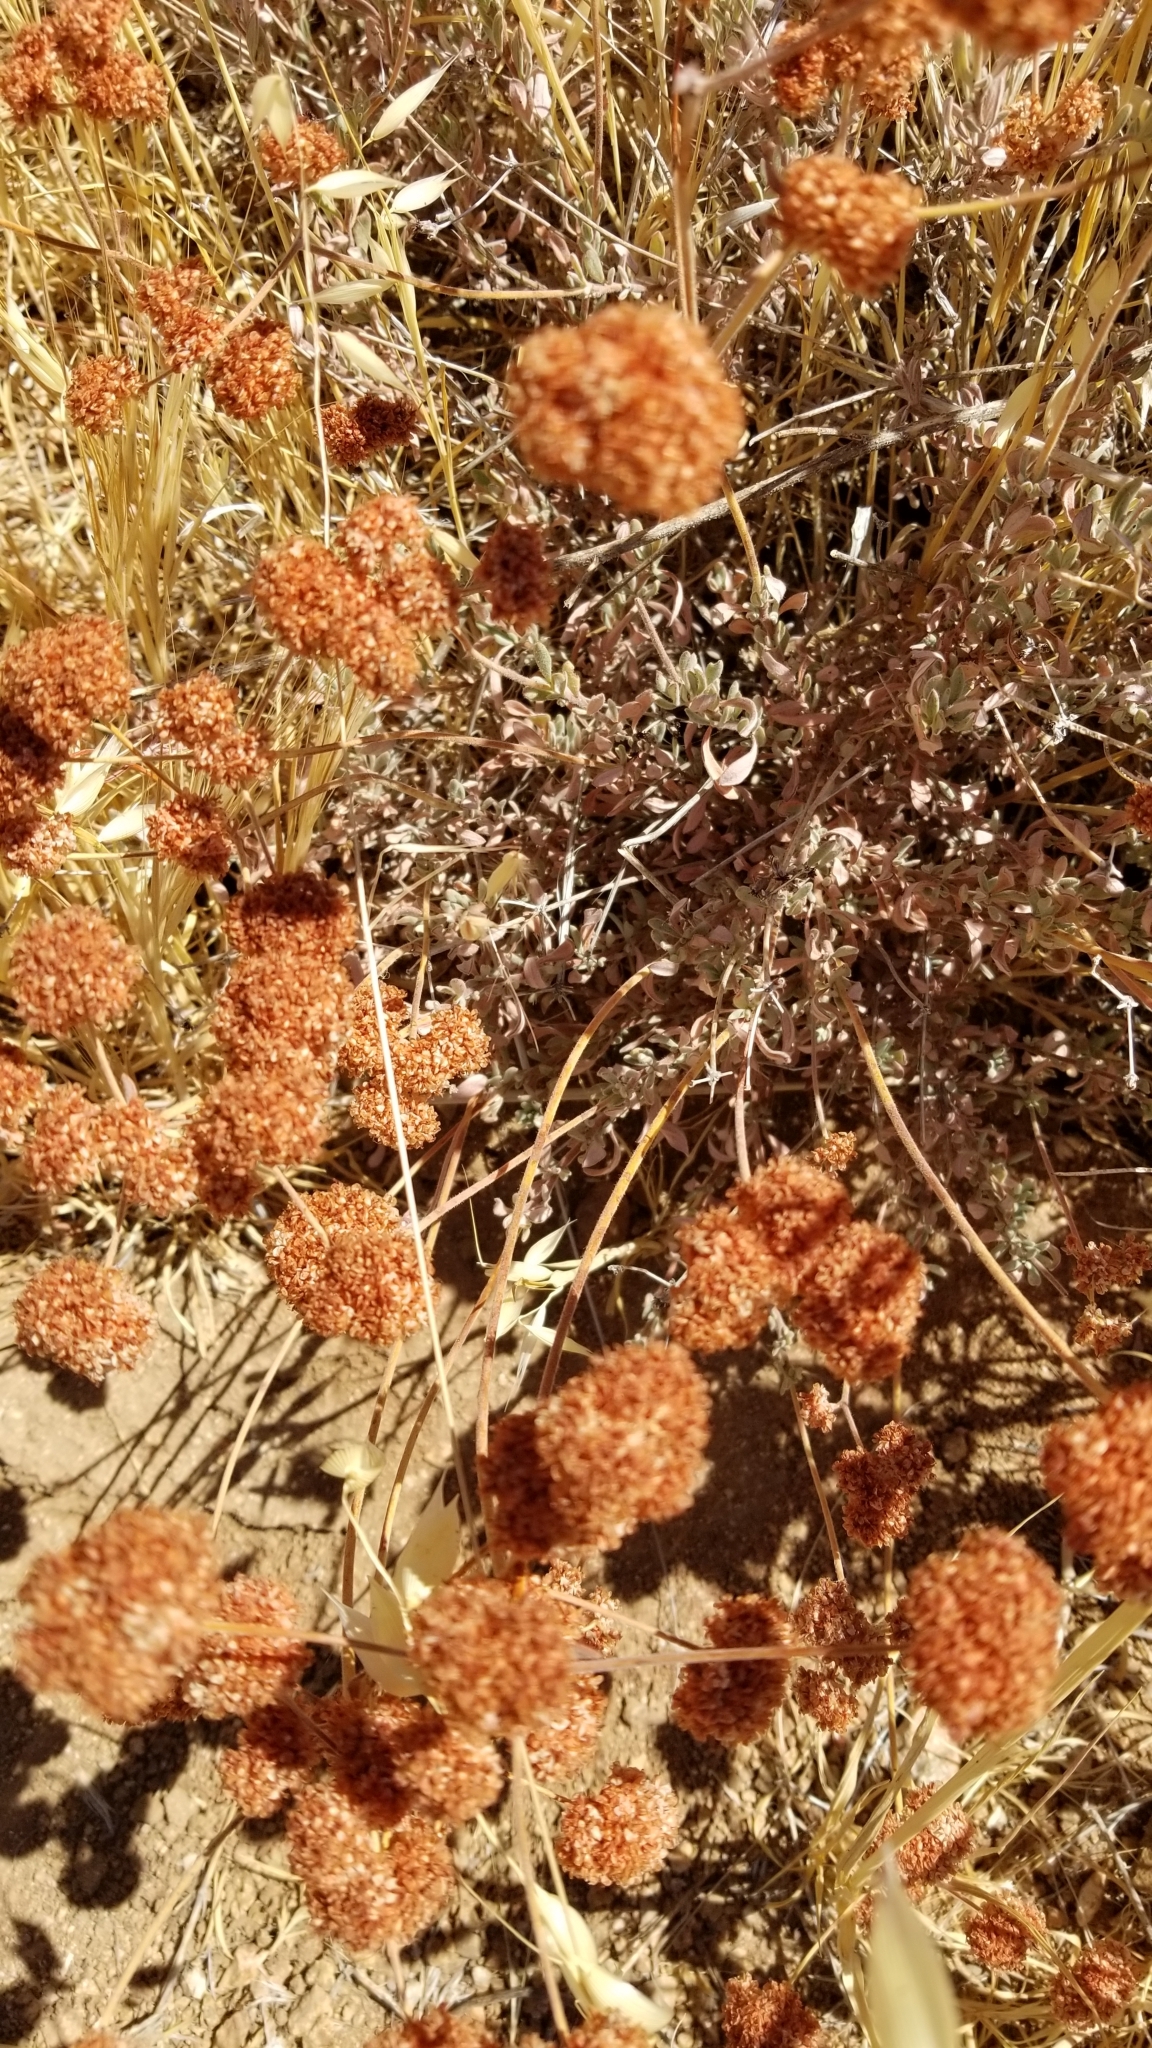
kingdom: Plantae
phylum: Tracheophyta
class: Magnoliopsida
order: Caryophyllales
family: Polygonaceae
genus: Eriogonum
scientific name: Eriogonum fasciculatum
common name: California wild buckwheat
